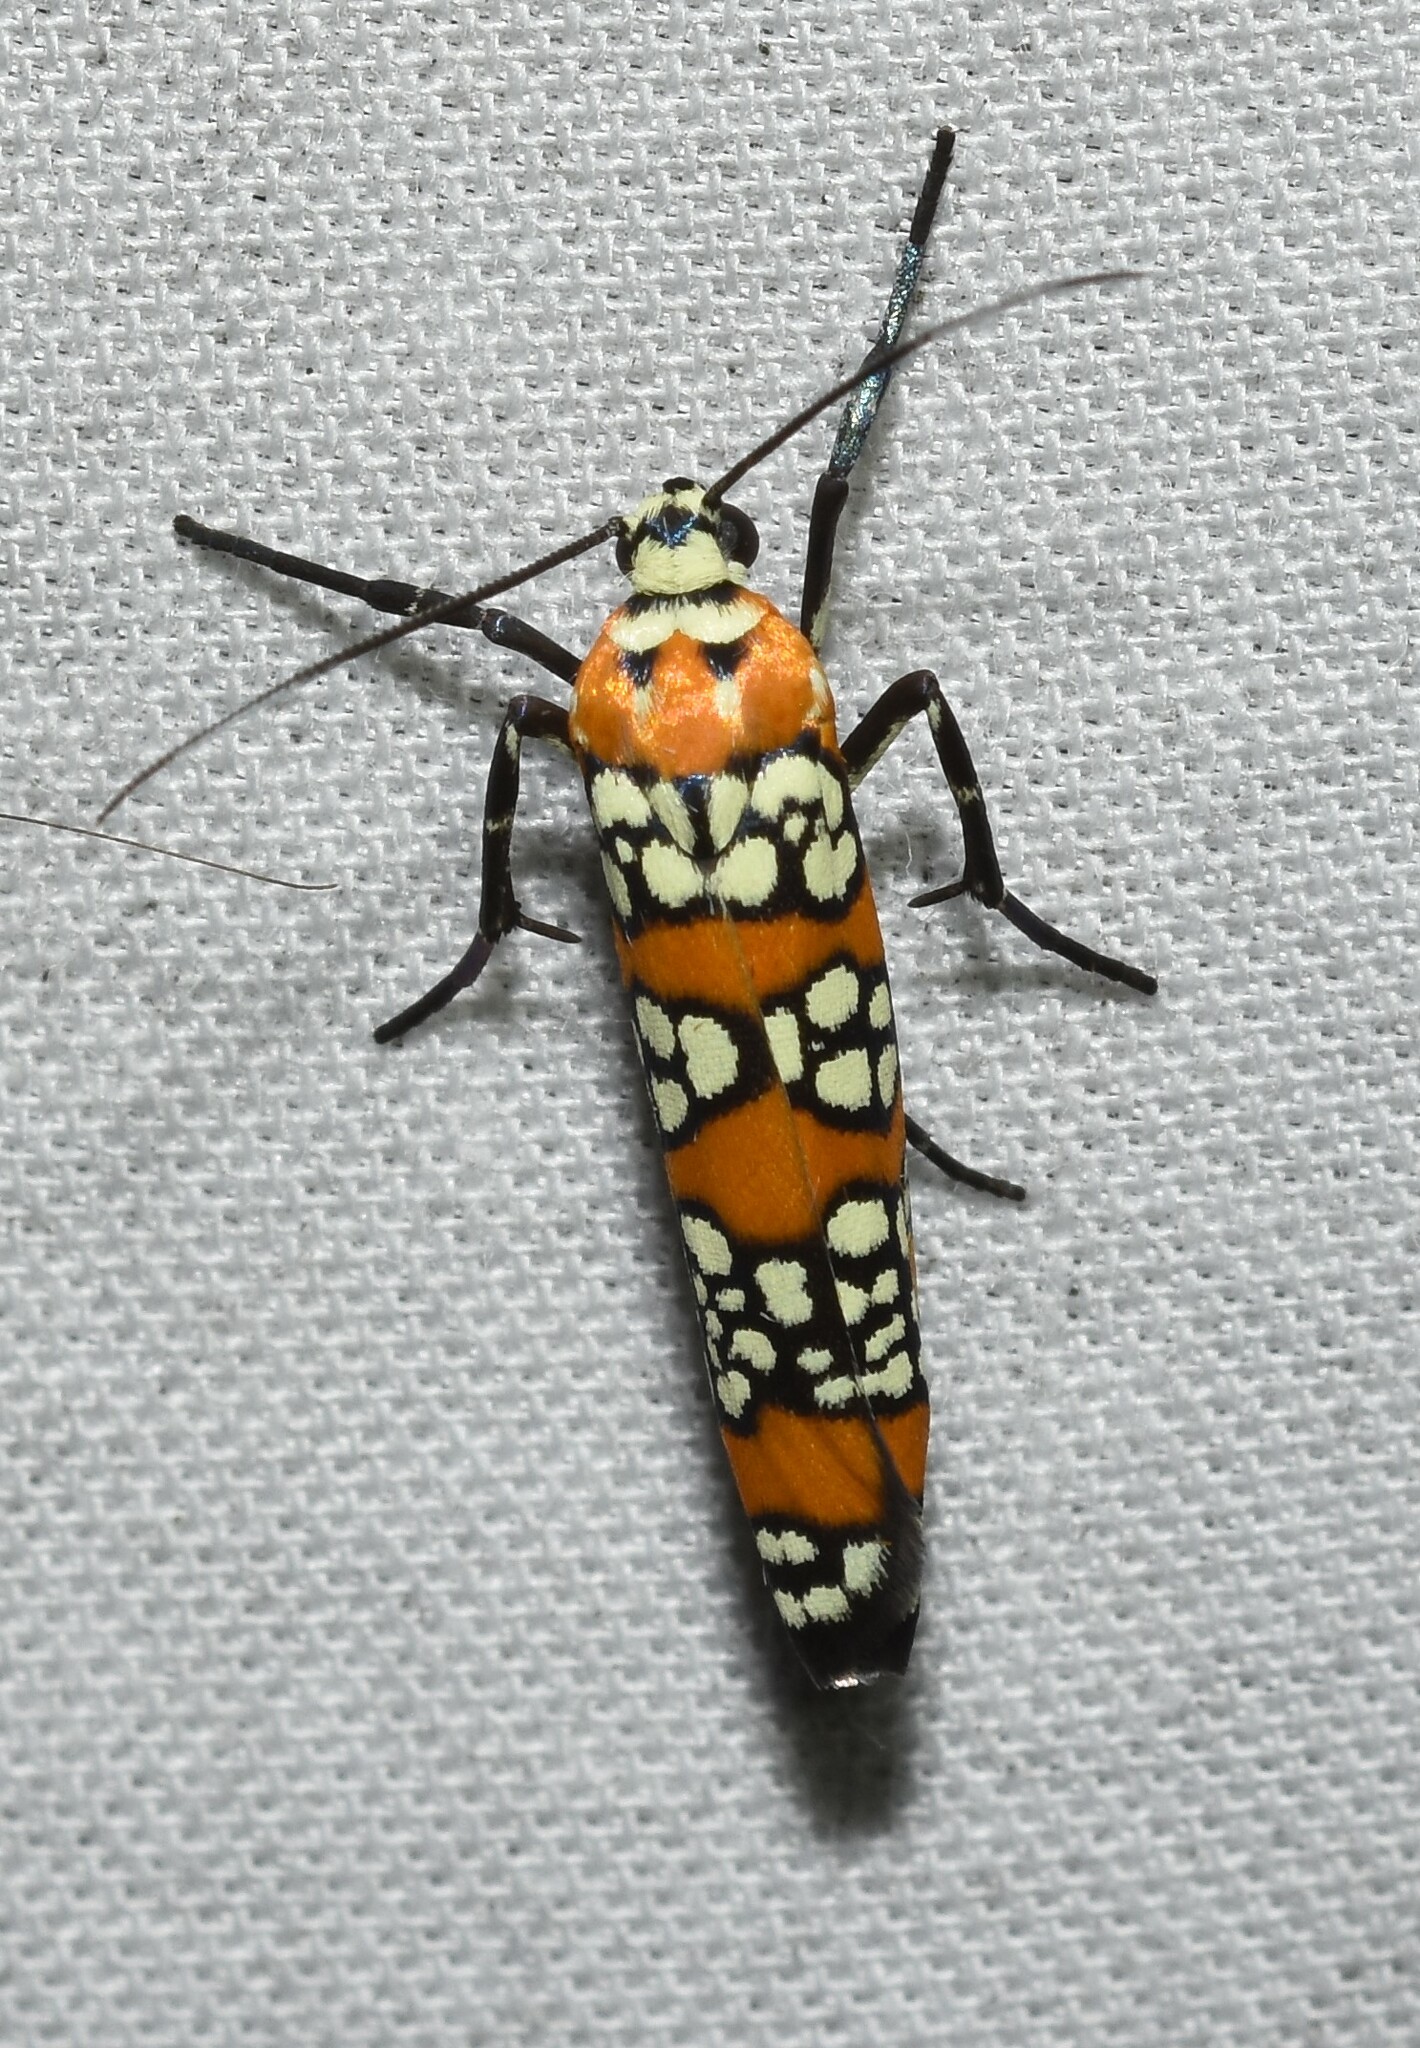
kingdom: Animalia
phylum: Arthropoda
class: Insecta
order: Lepidoptera
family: Attevidae
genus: Atteva
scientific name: Atteva punctella
